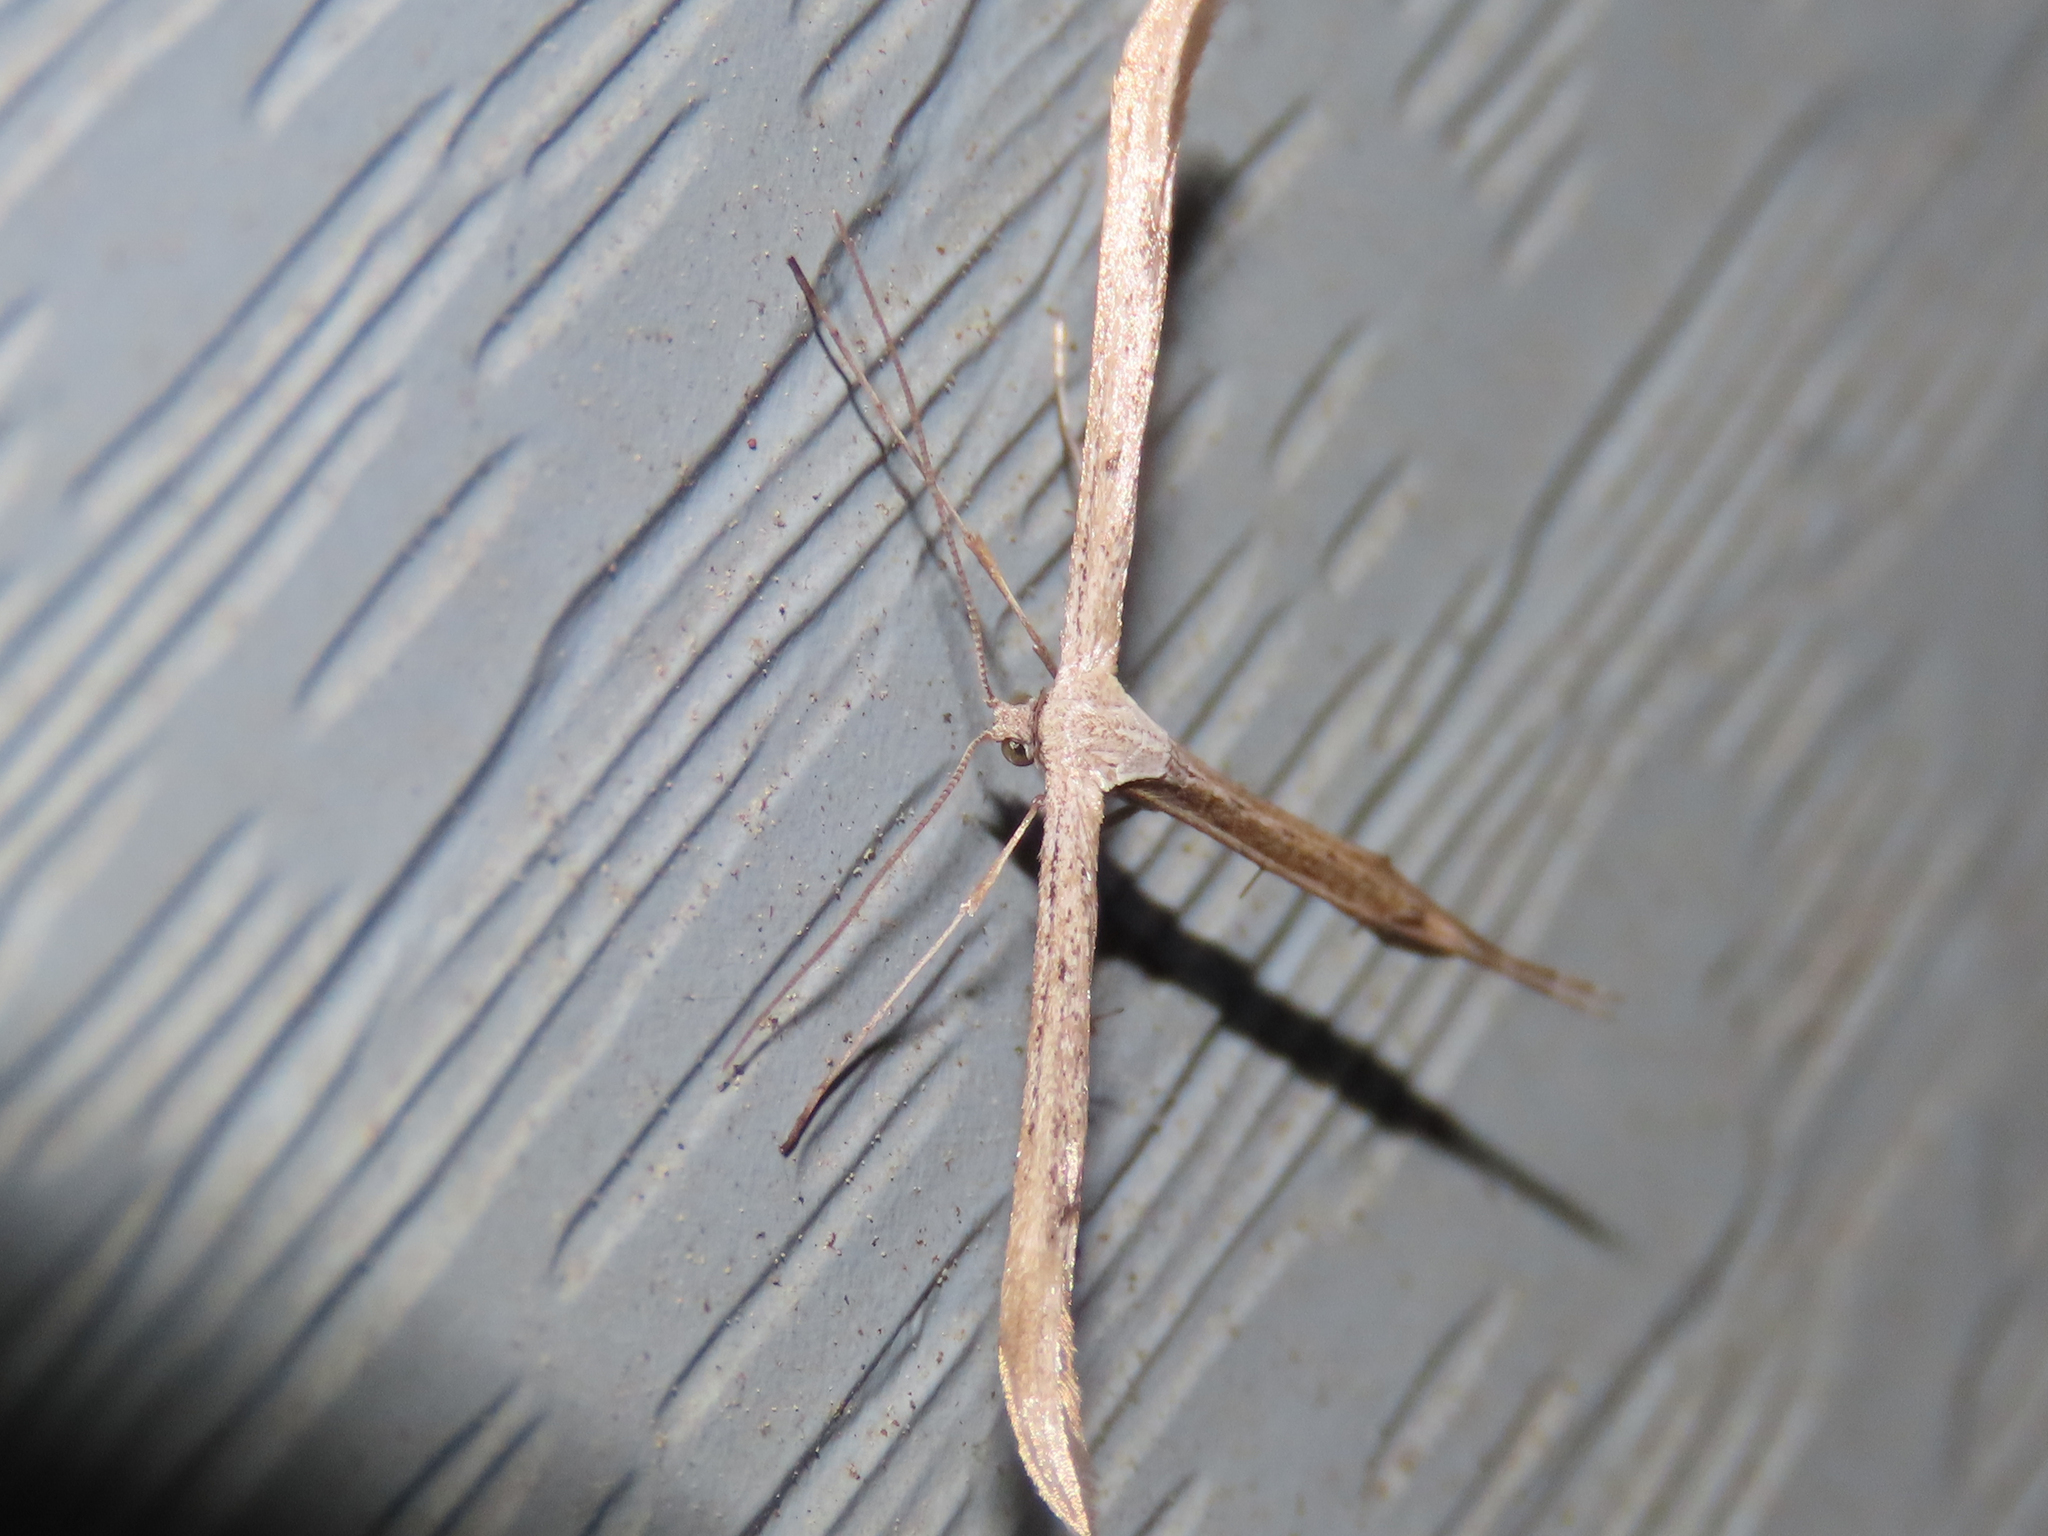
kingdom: Animalia
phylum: Arthropoda
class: Insecta
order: Lepidoptera
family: Pterophoridae
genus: Emmelina
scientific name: Emmelina monodactyla
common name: Common plume
